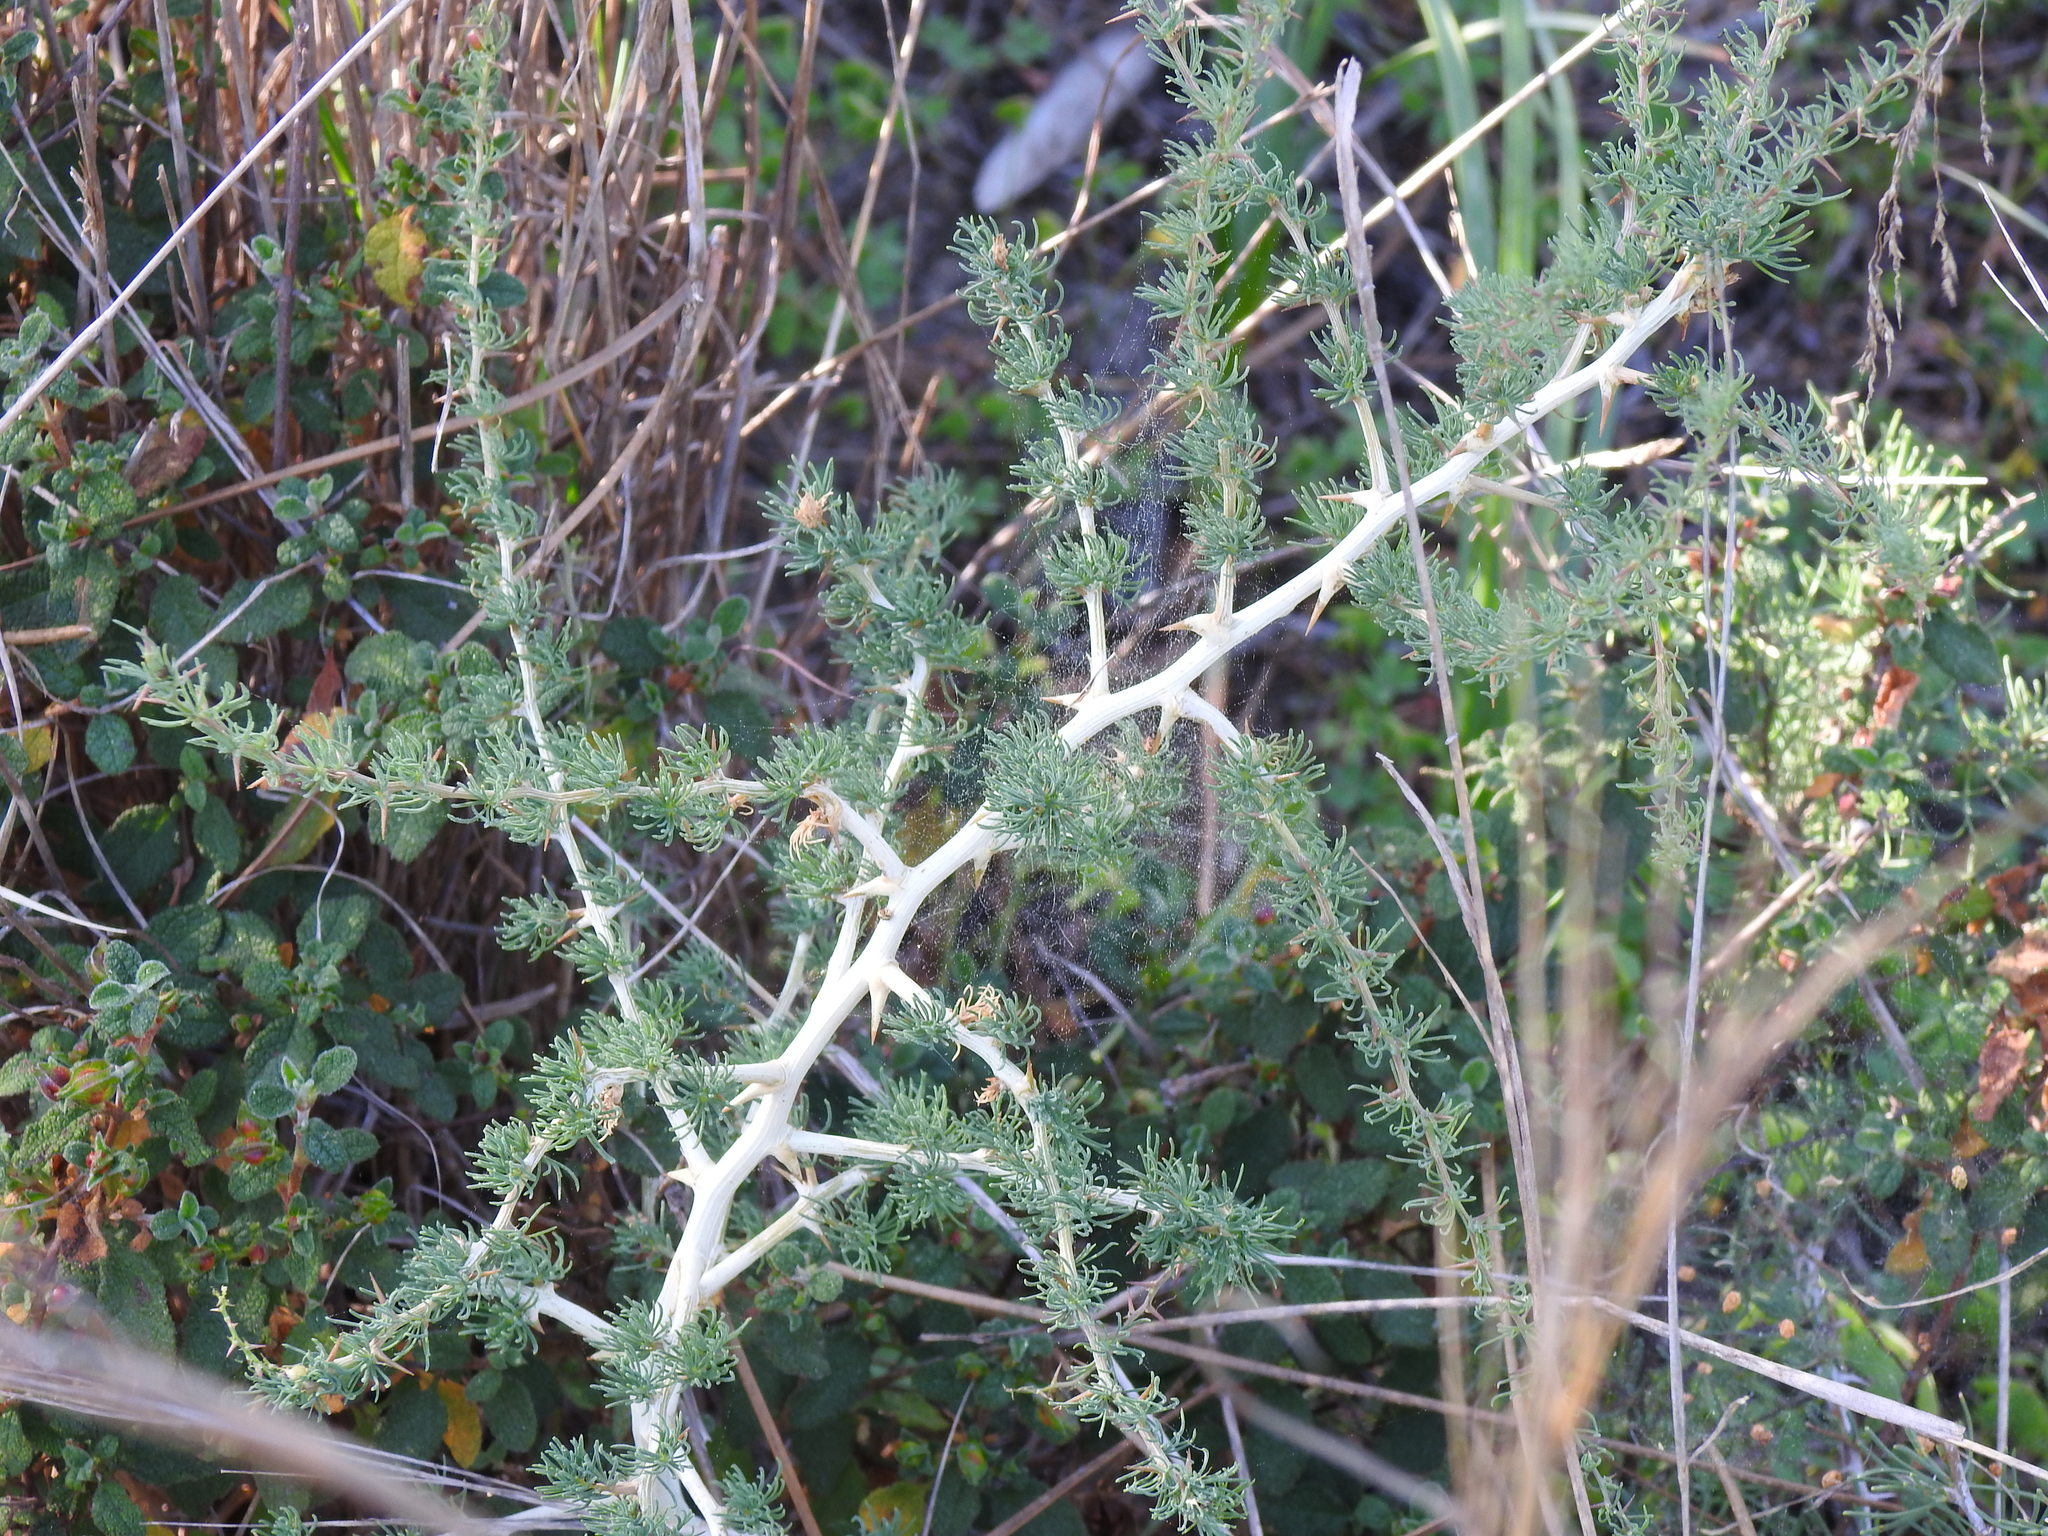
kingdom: Plantae
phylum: Tracheophyta
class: Liliopsida
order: Asparagales
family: Asparagaceae
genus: Asparagus
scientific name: Asparagus albus
